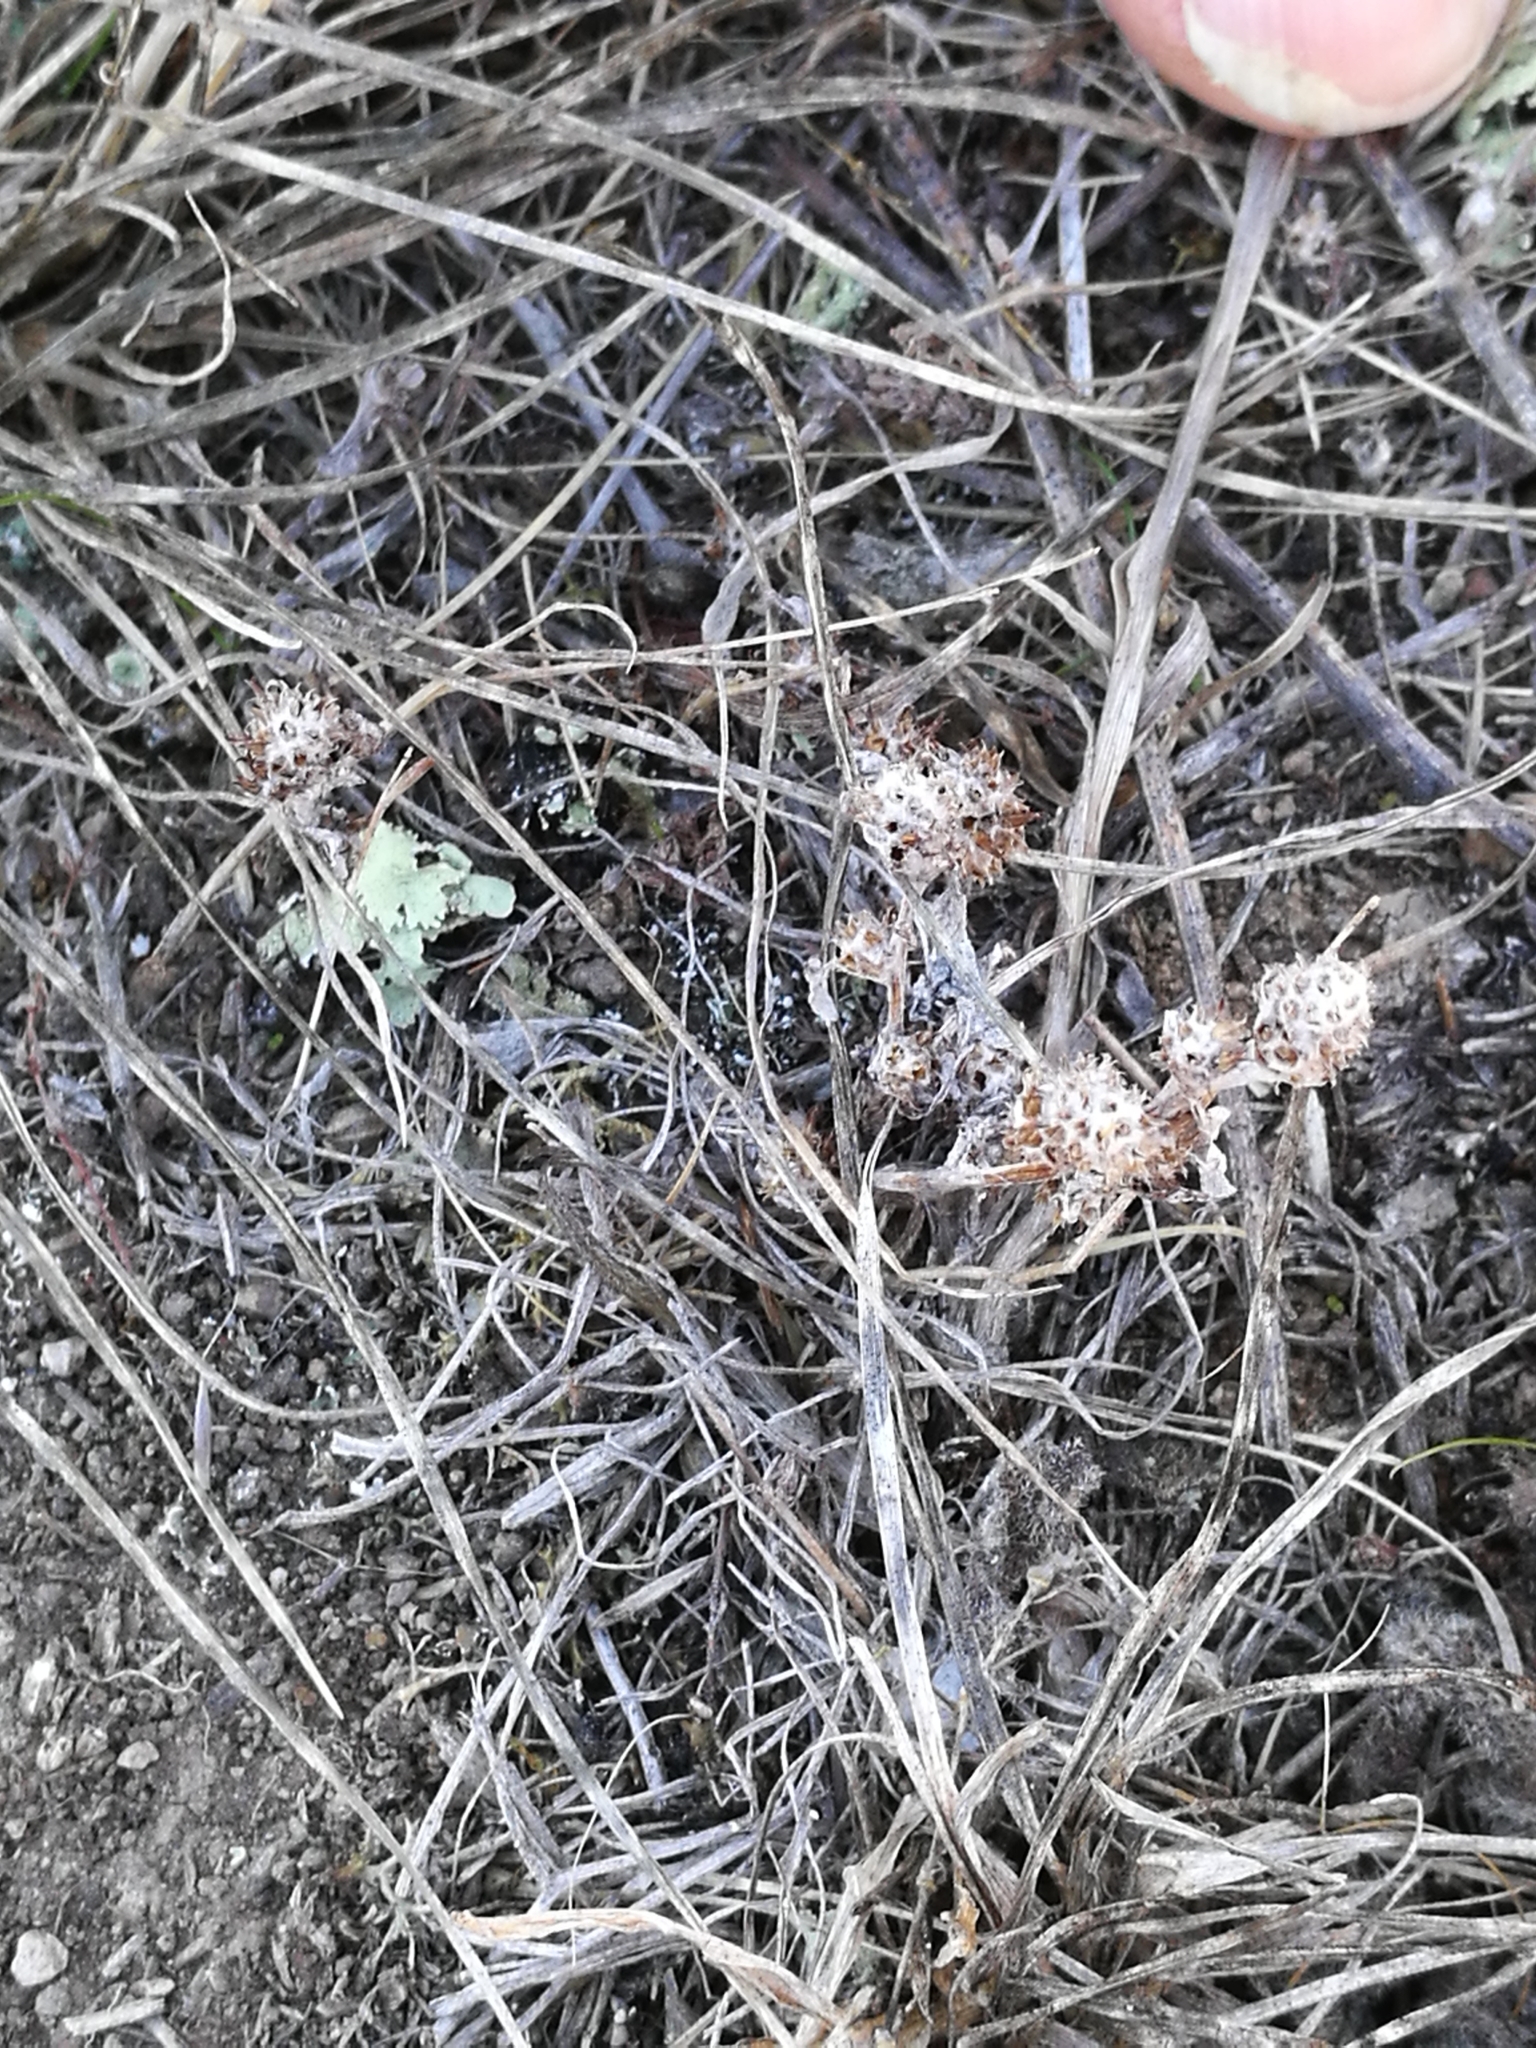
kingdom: Plantae
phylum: Tracheophyta
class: Magnoliopsida
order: Lamiales
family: Lamiaceae
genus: Marrubium
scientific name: Marrubium vulgare
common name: Horehound
